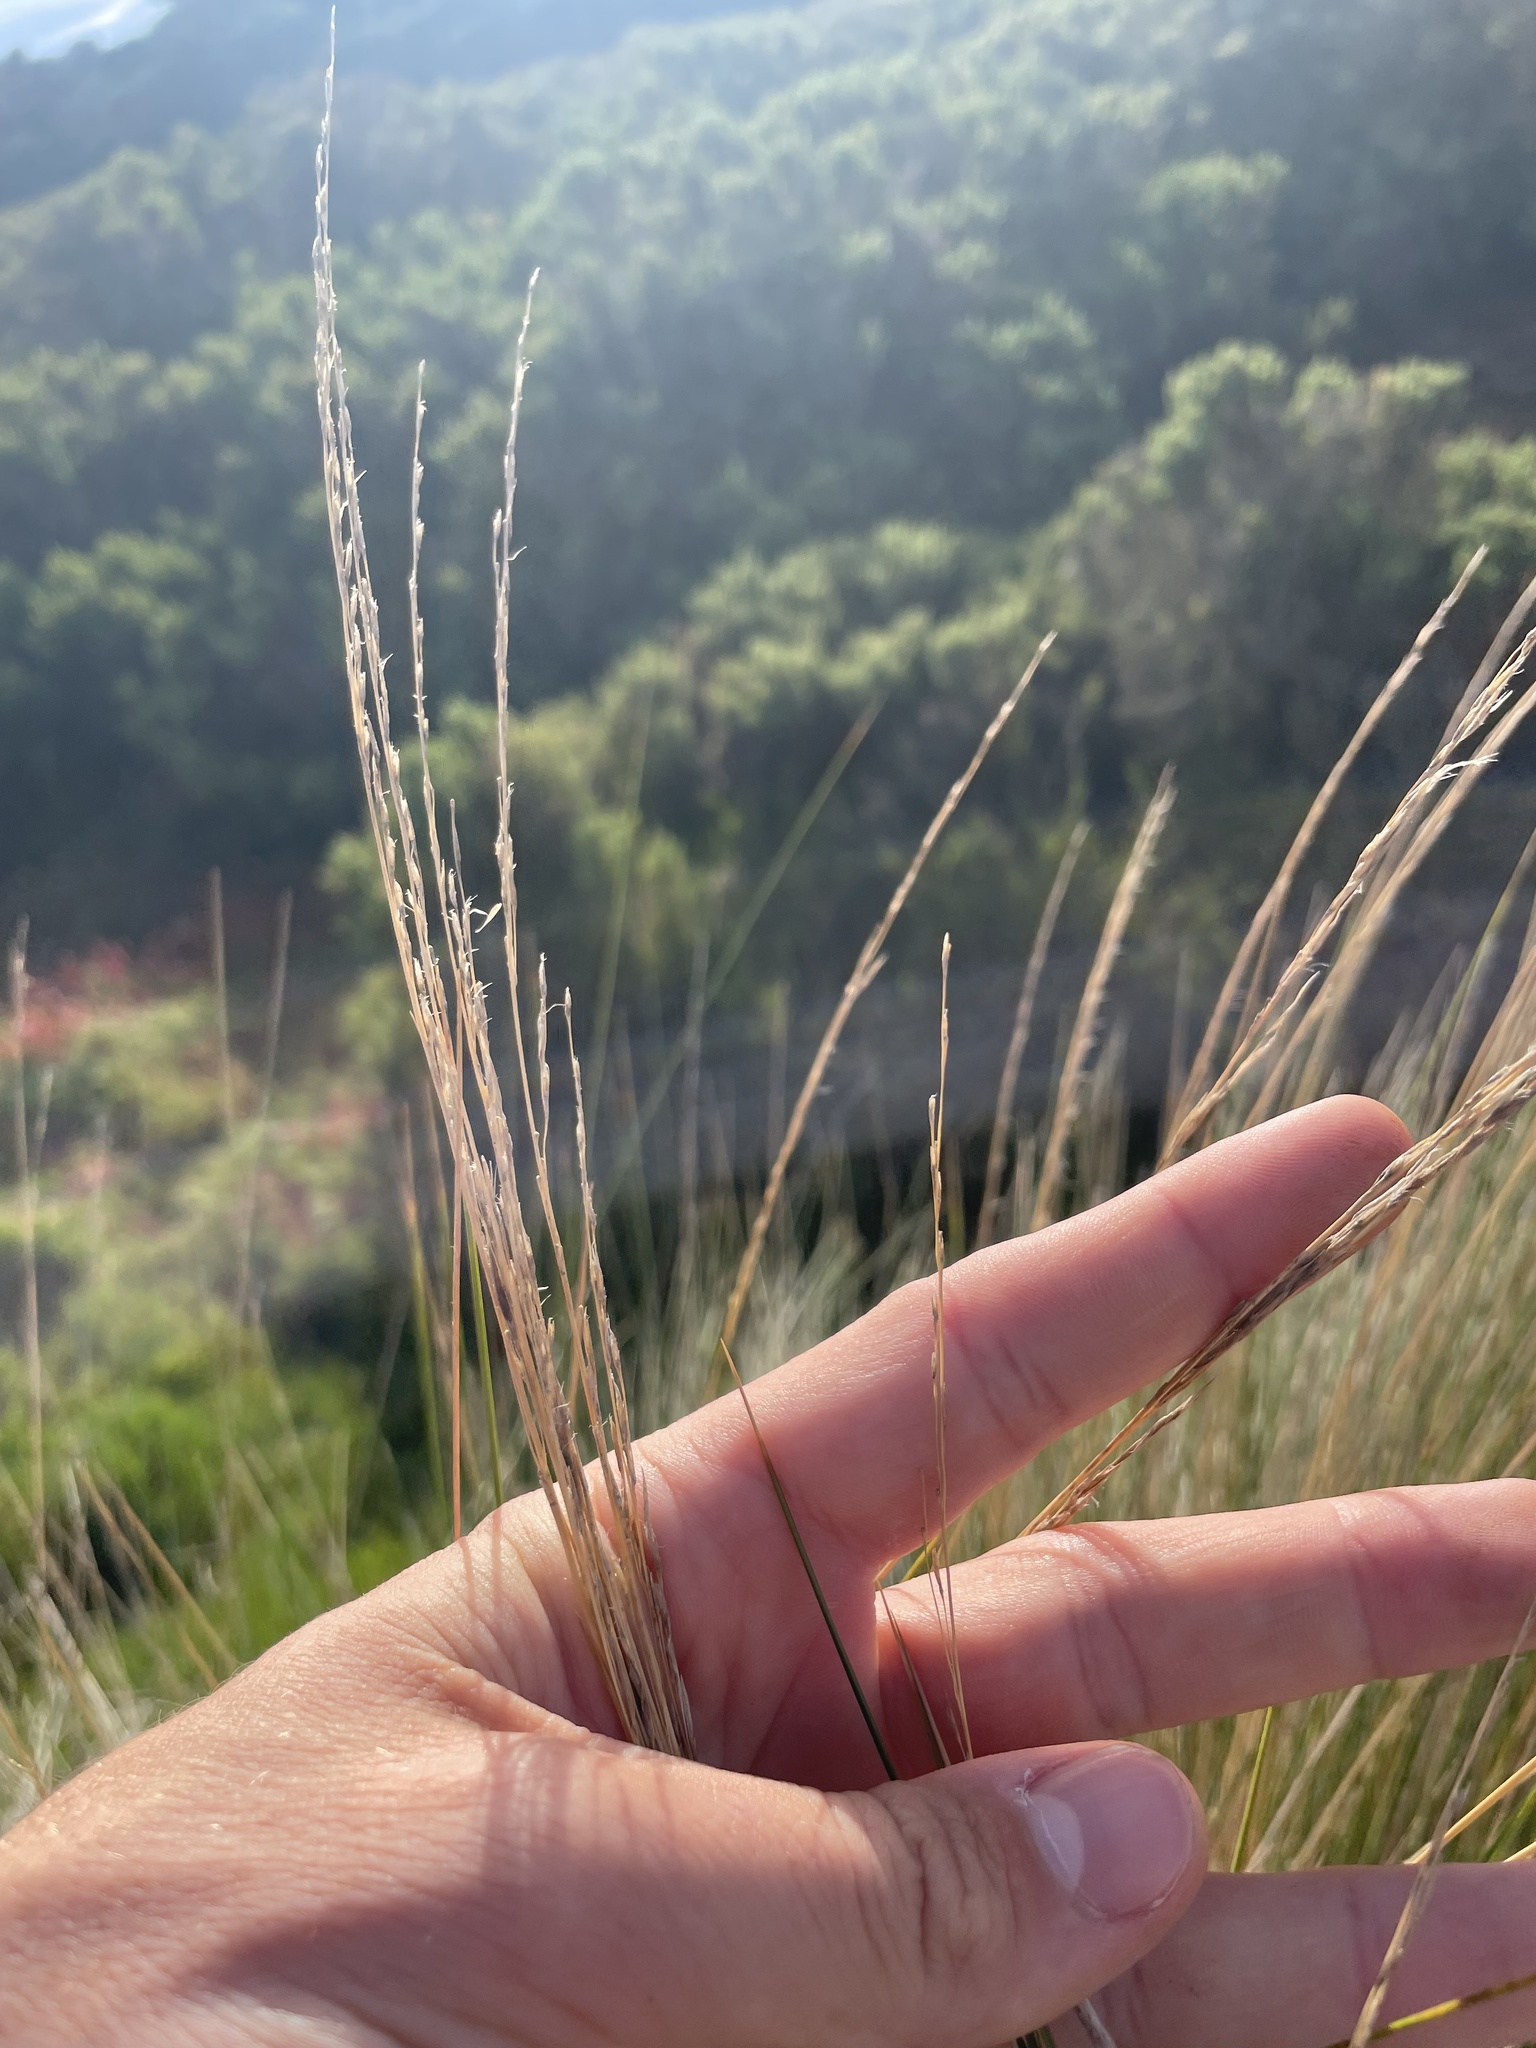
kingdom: Plantae
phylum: Tracheophyta
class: Liliopsida
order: Poales
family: Poaceae
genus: Austrostipa
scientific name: Austrostipa stipoides
